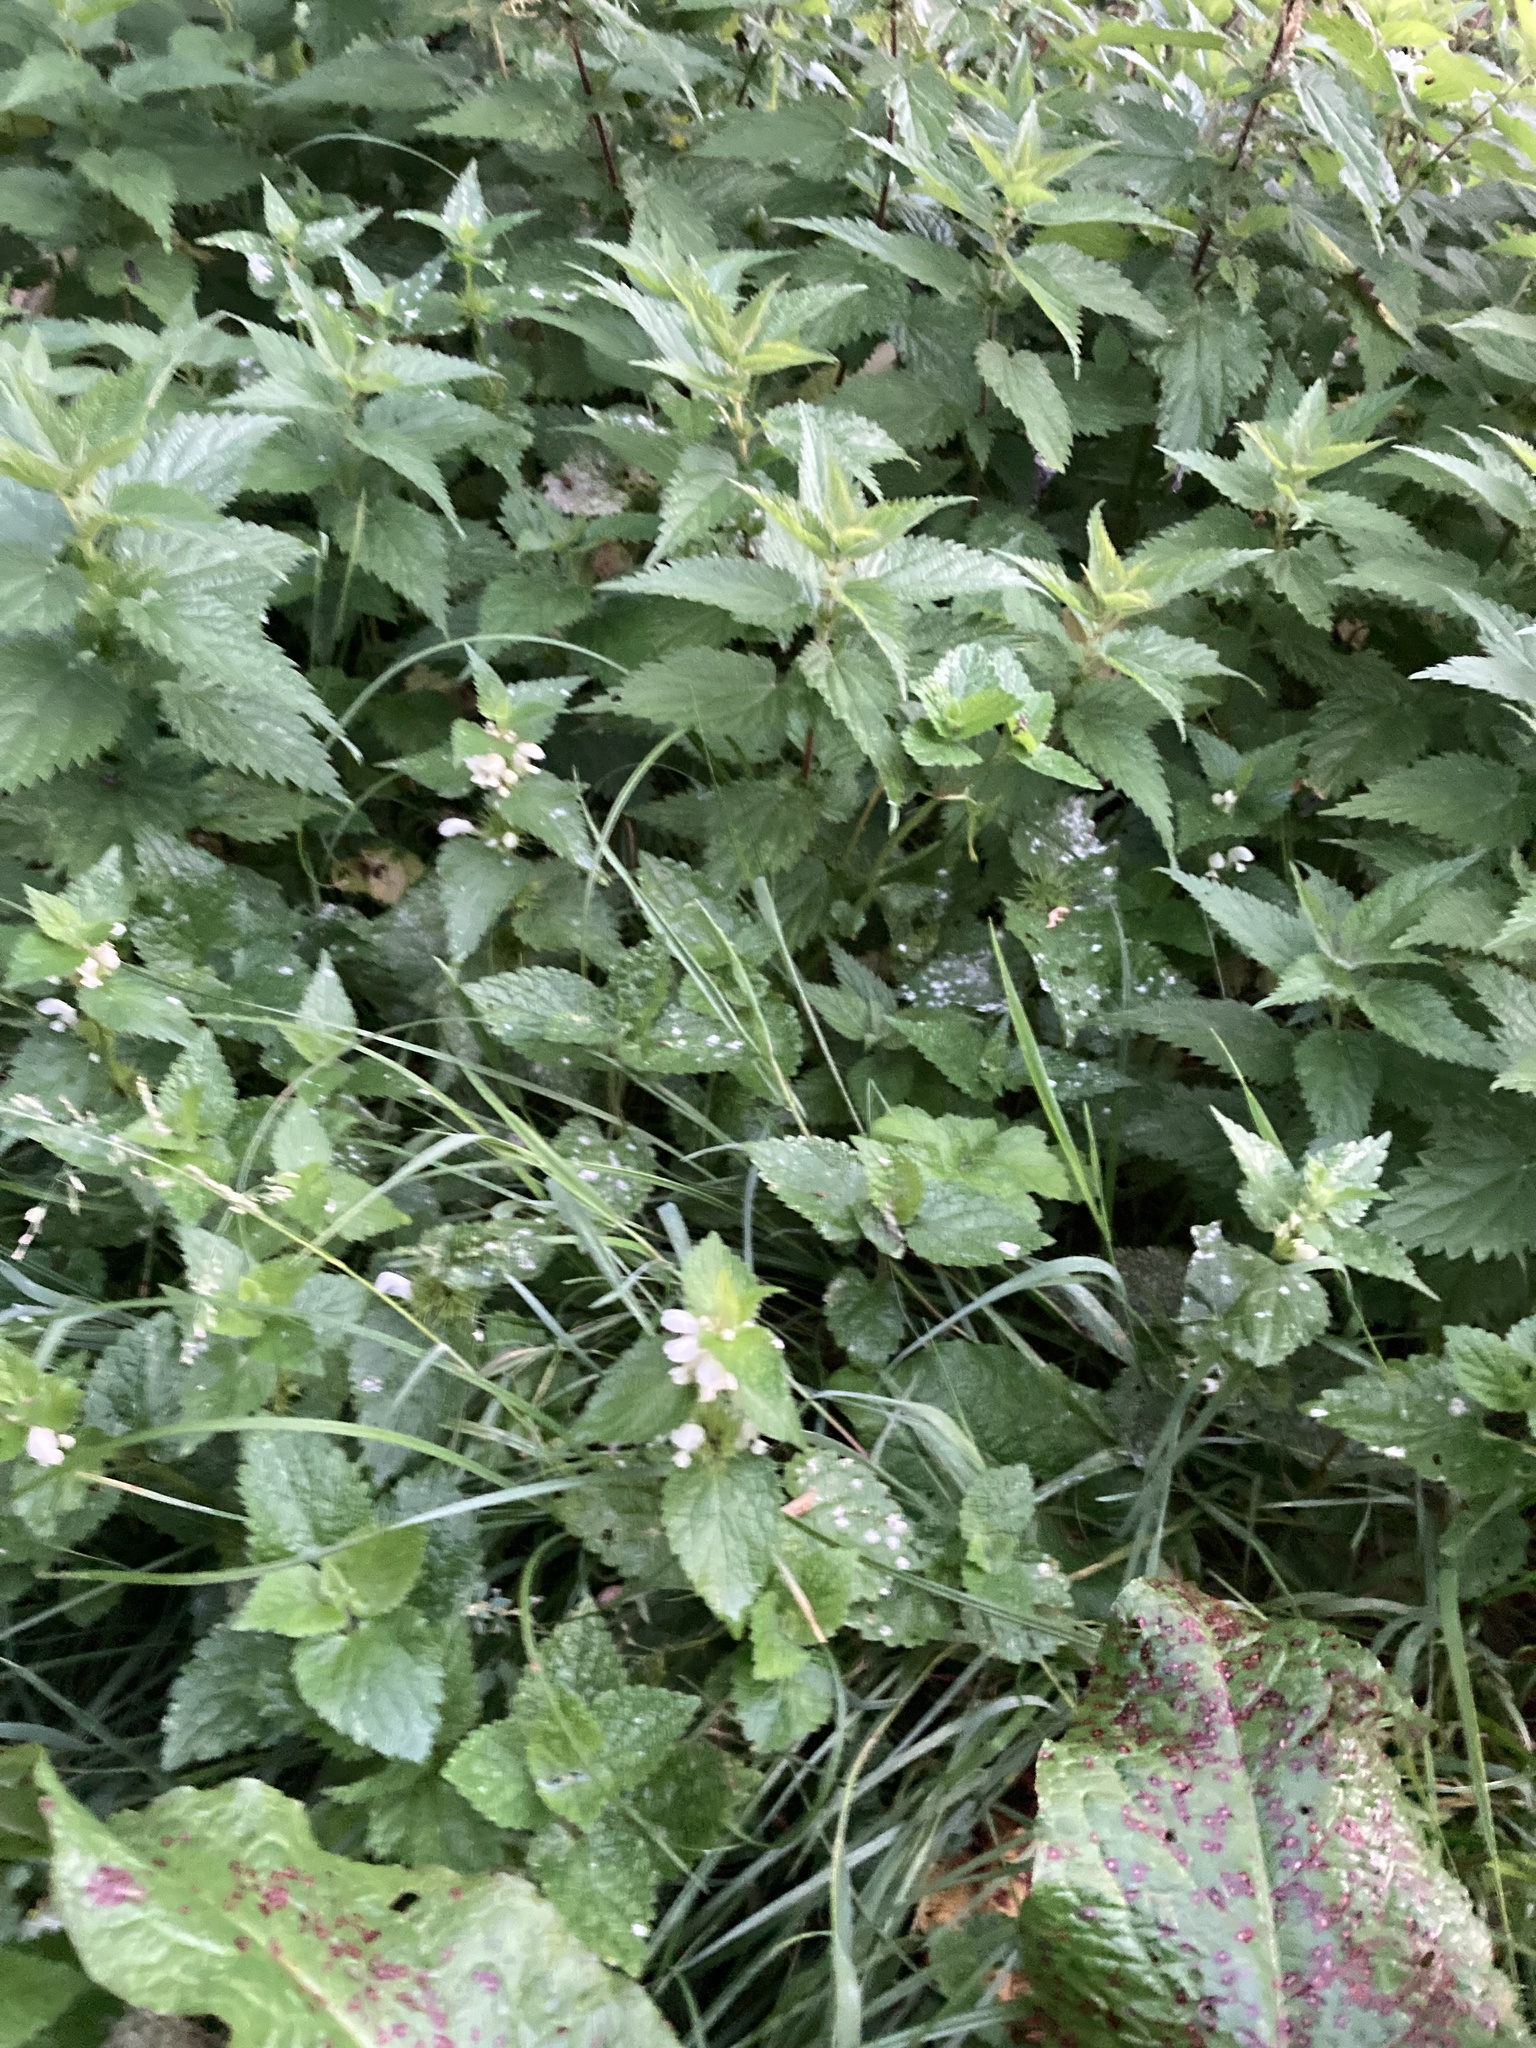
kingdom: Plantae
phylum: Tracheophyta
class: Magnoliopsida
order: Lamiales
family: Lamiaceae
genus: Lamium
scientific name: Lamium album
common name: White dead-nettle
